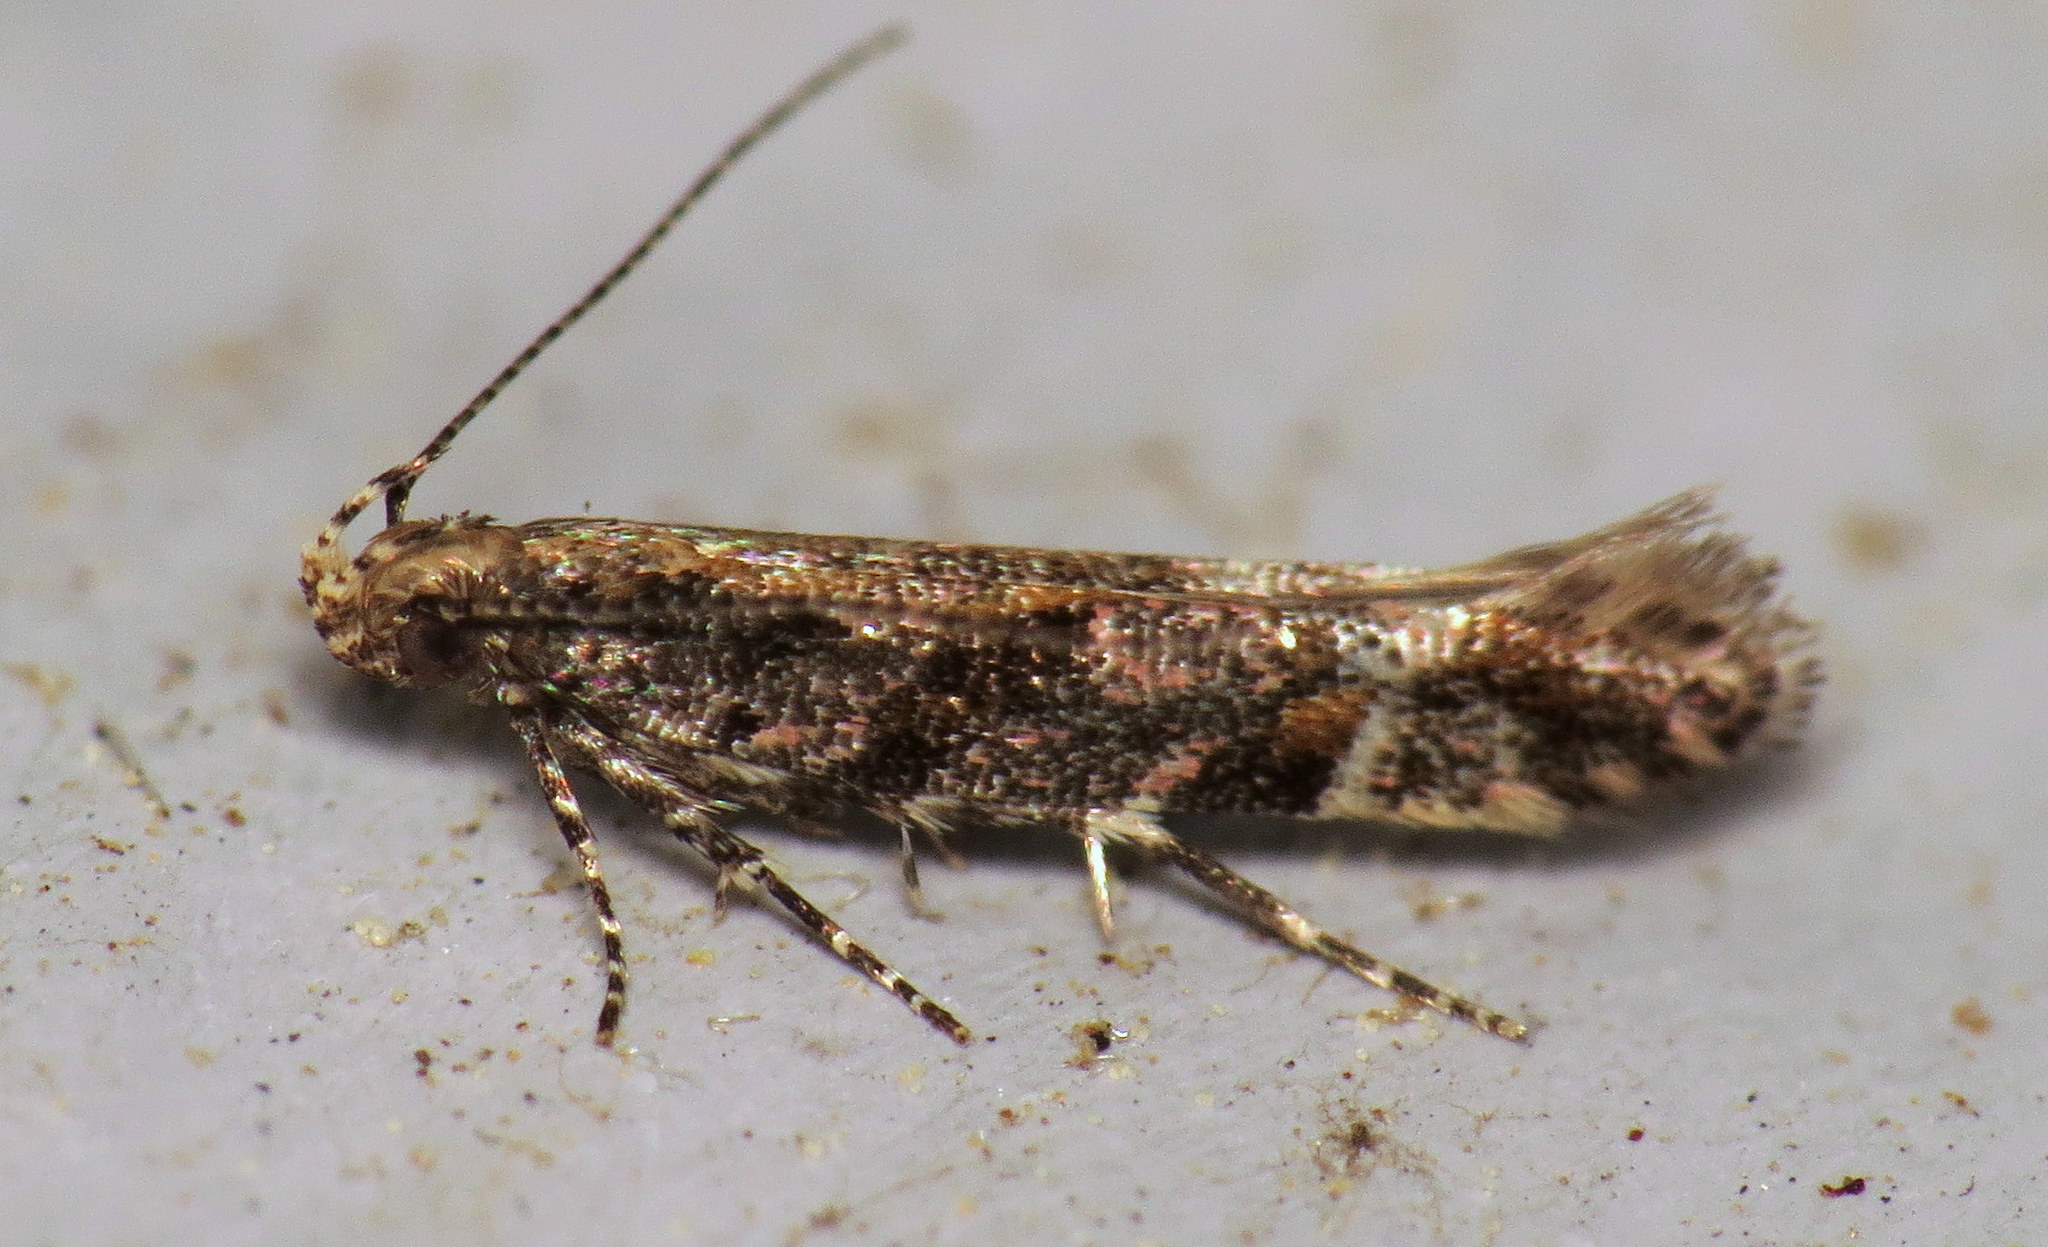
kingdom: Animalia
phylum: Arthropoda
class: Insecta
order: Lepidoptera
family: Gelechiidae
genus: Aristotelia
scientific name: Aristotelia rubidella
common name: Ruby aristotelia moth
